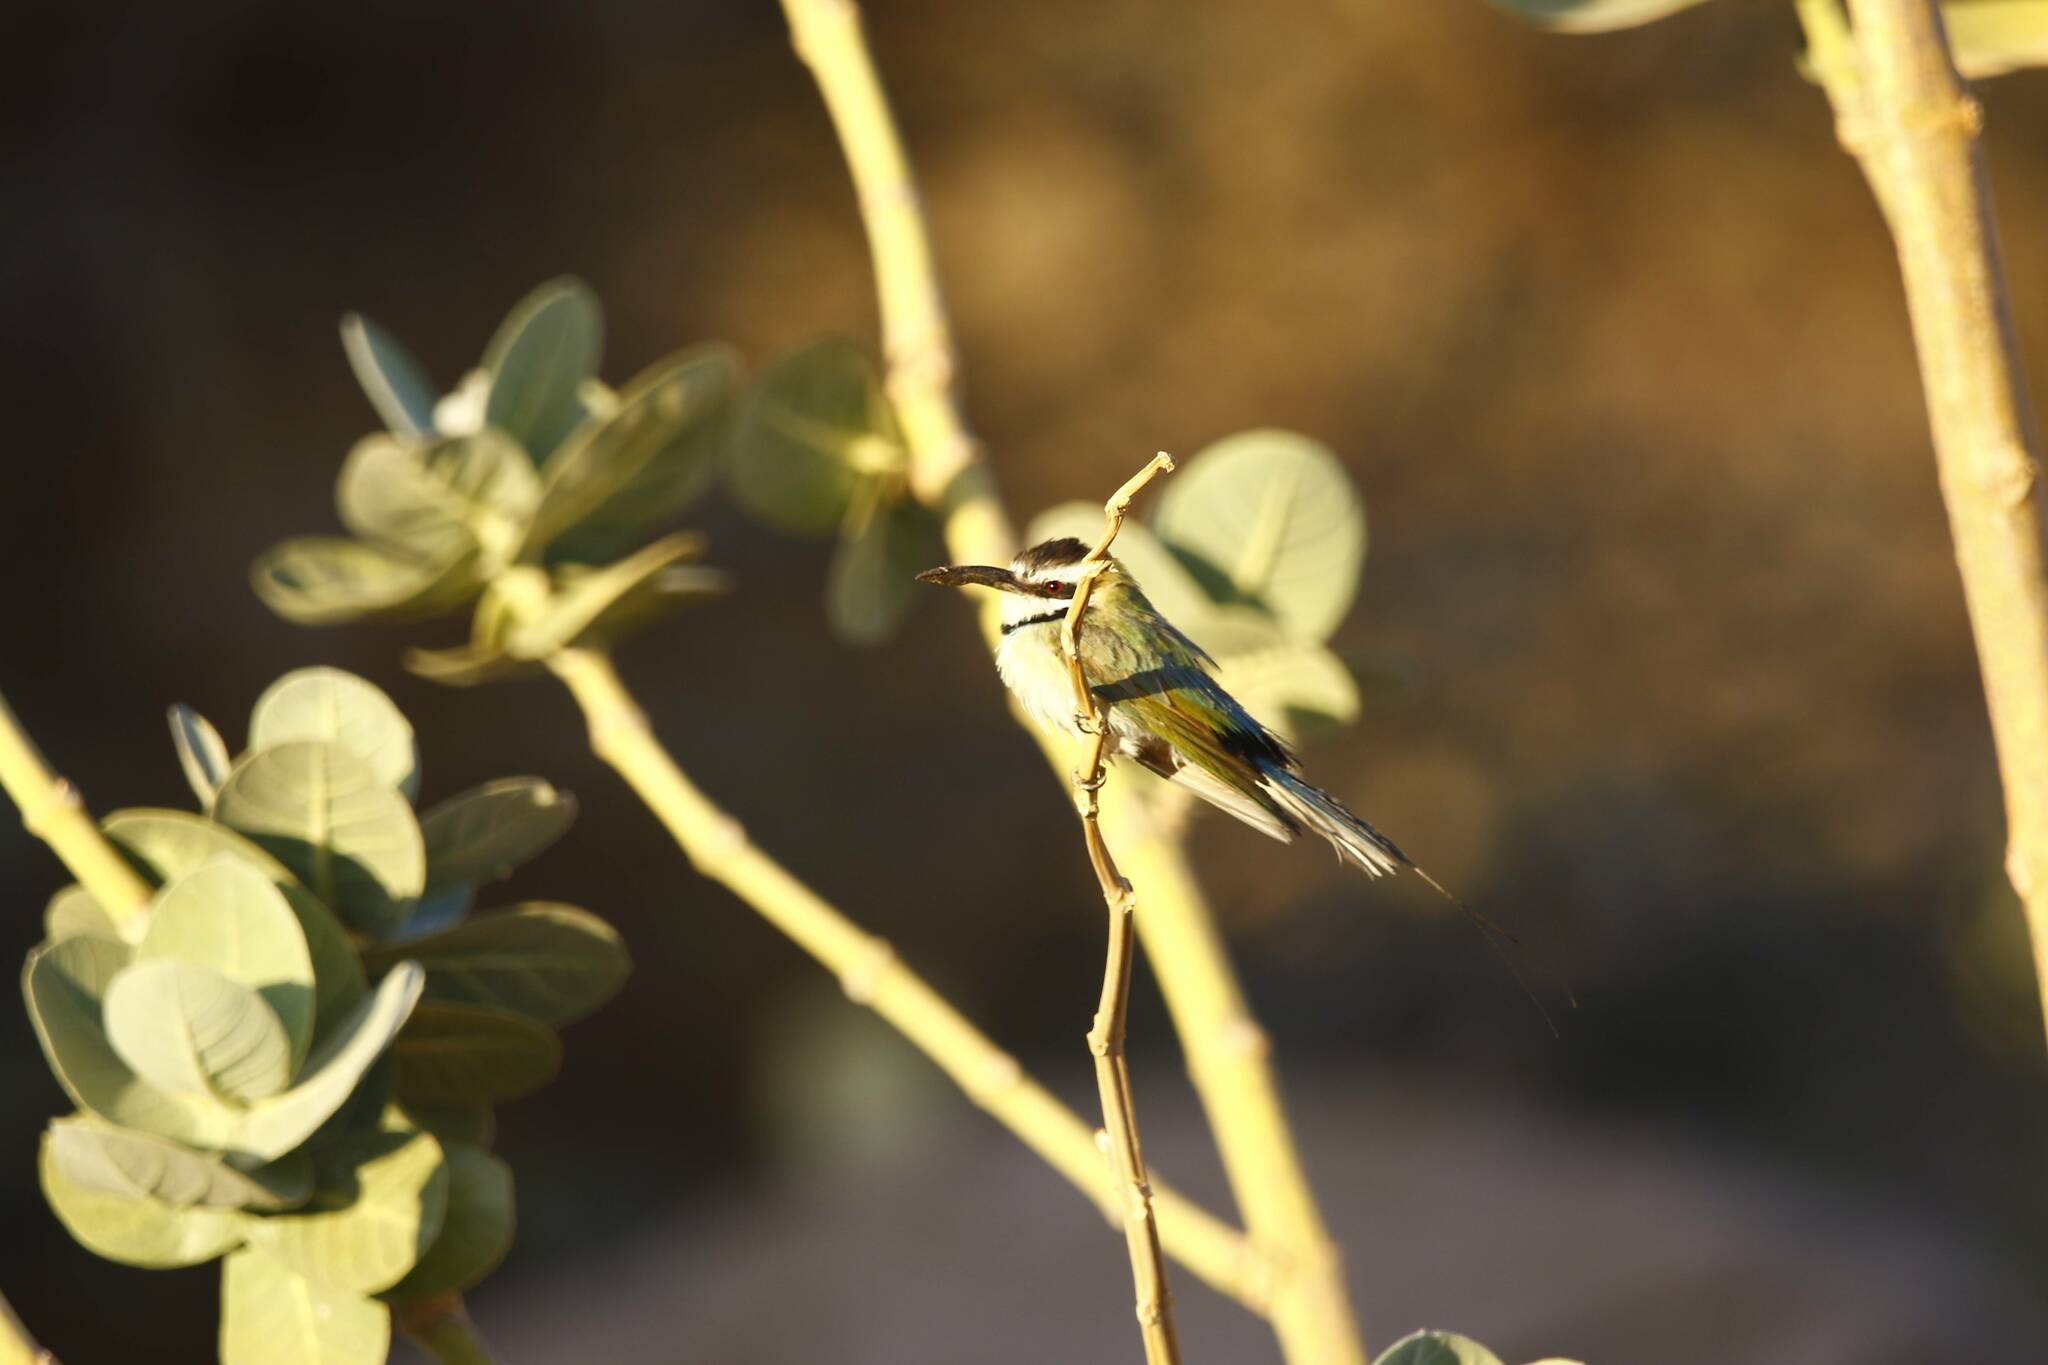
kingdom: Animalia
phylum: Chordata
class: Aves
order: Coraciiformes
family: Meropidae
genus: Merops
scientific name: Merops albicollis
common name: White-throated bee-eater
